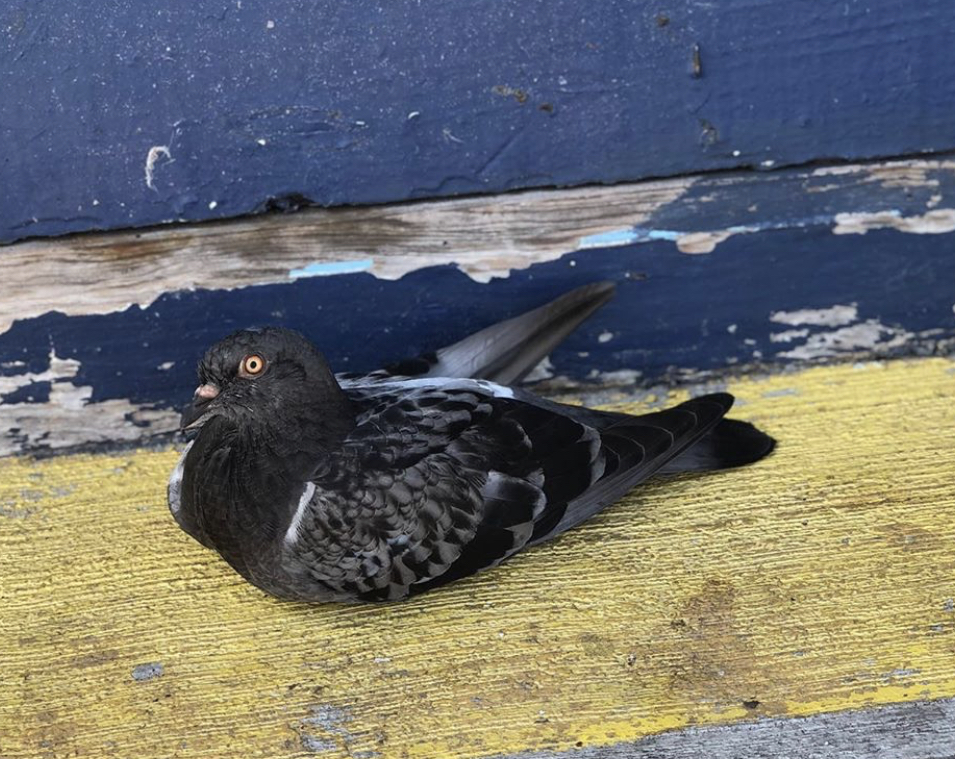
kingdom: Animalia
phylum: Chordata
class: Aves
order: Columbiformes
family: Columbidae
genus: Columba
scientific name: Columba livia
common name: Rock pigeon
